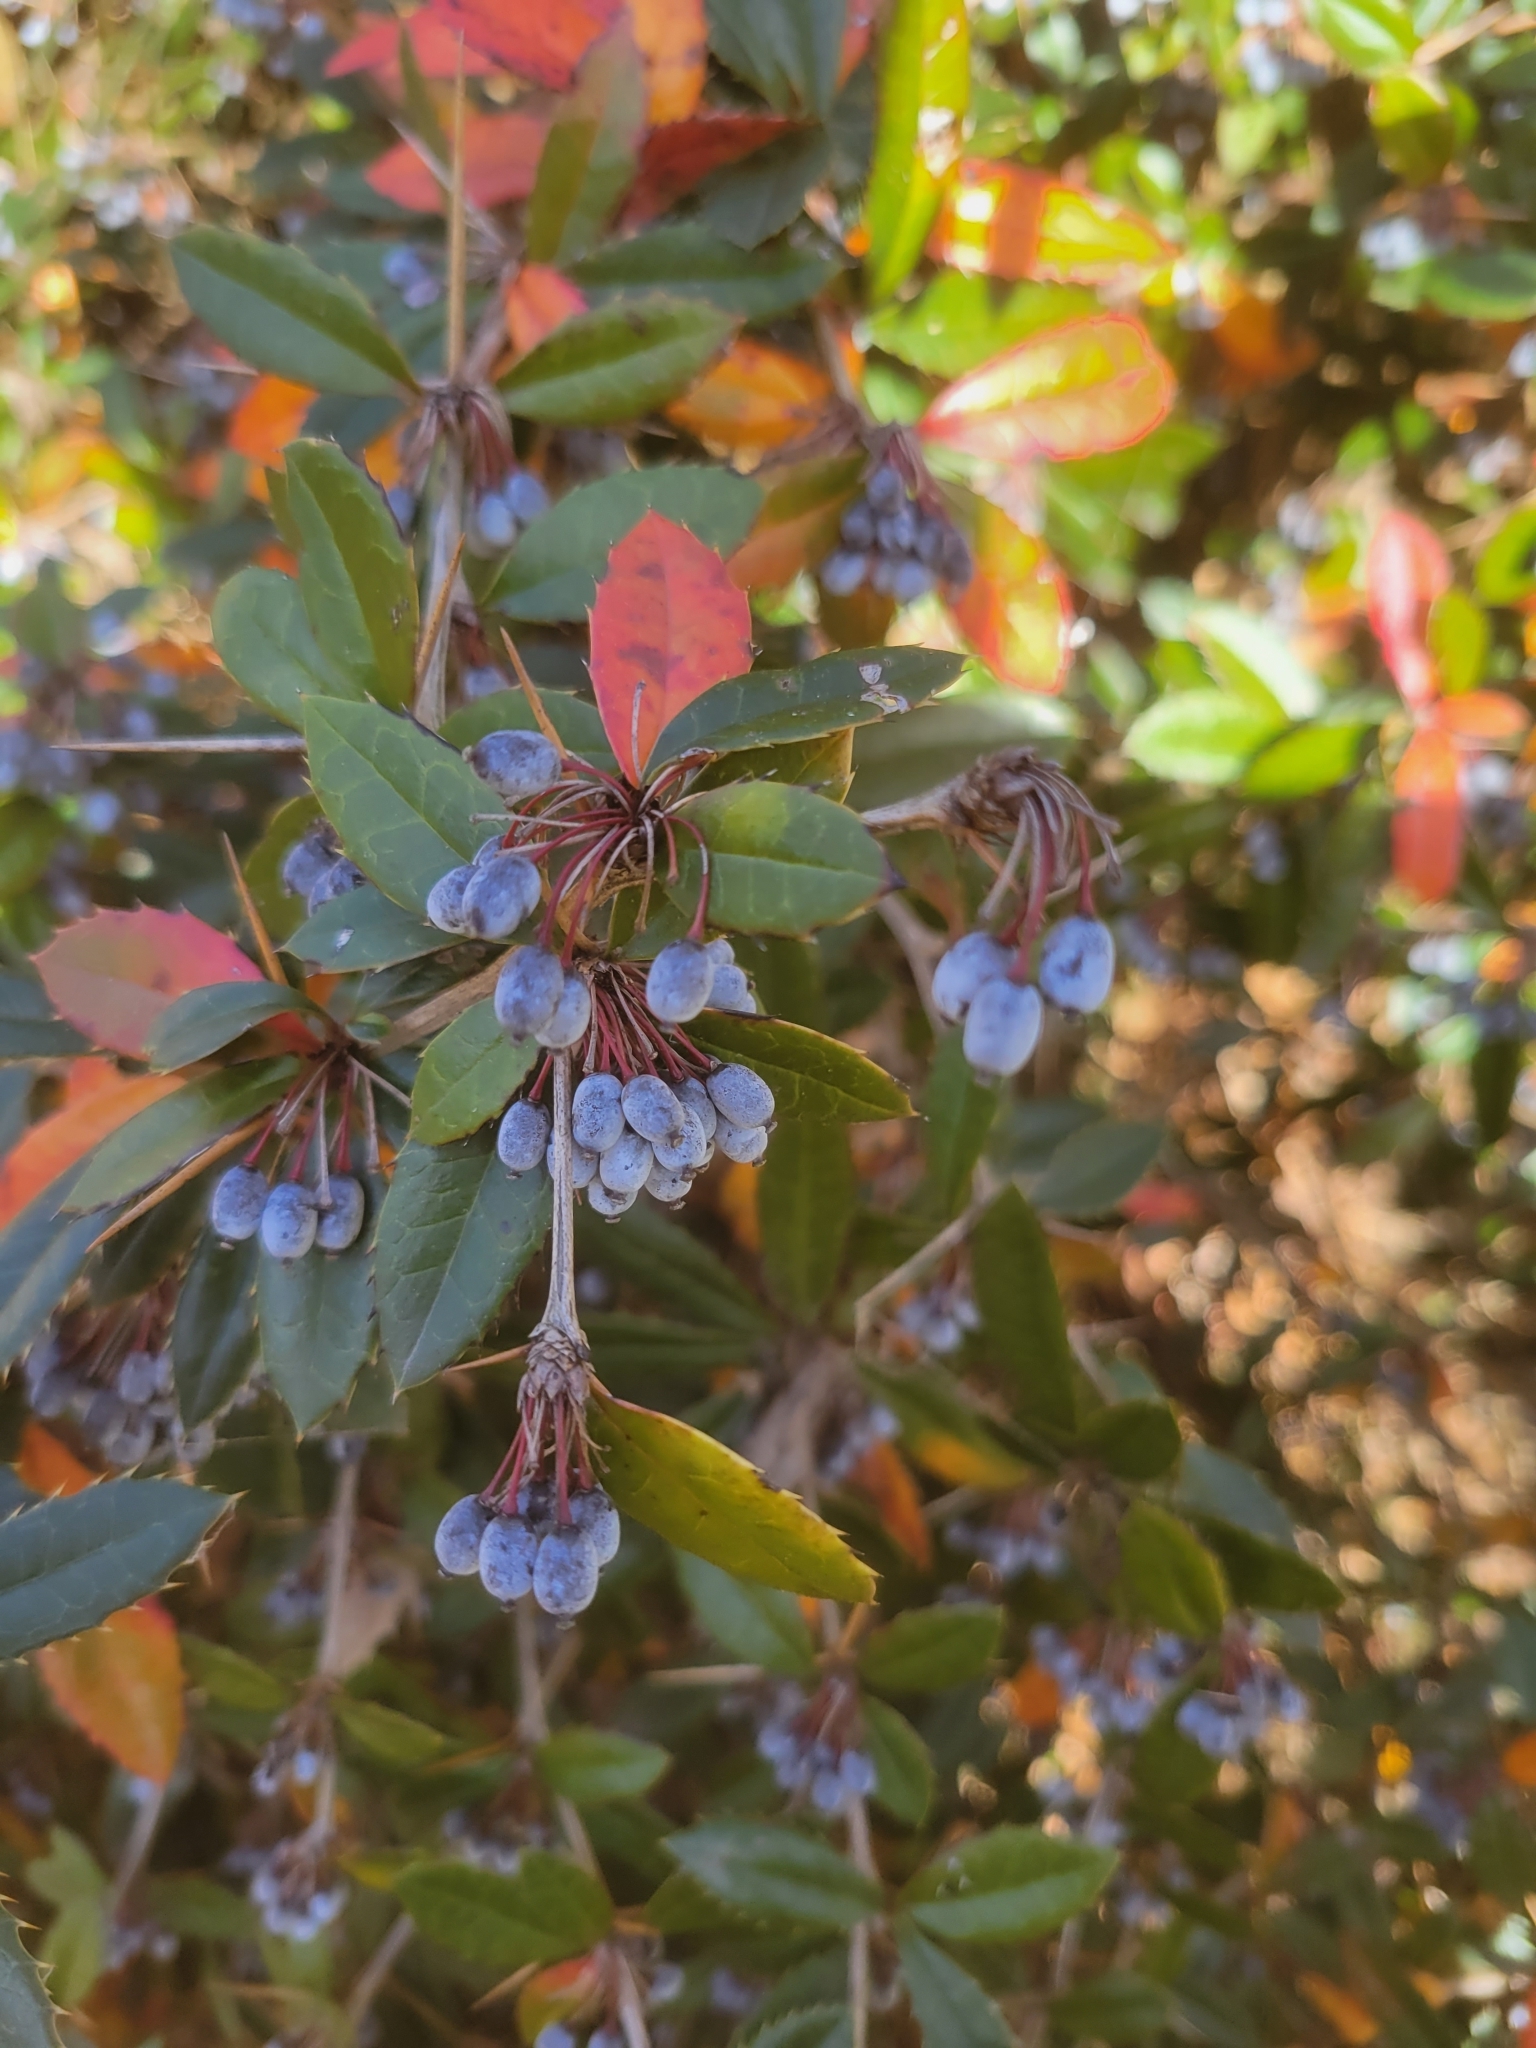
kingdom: Plantae
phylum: Tracheophyta
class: Magnoliopsida
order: Ranunculales
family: Berberidaceae
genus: Berberis
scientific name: Berberis julianae
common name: Wintergreen barberry
